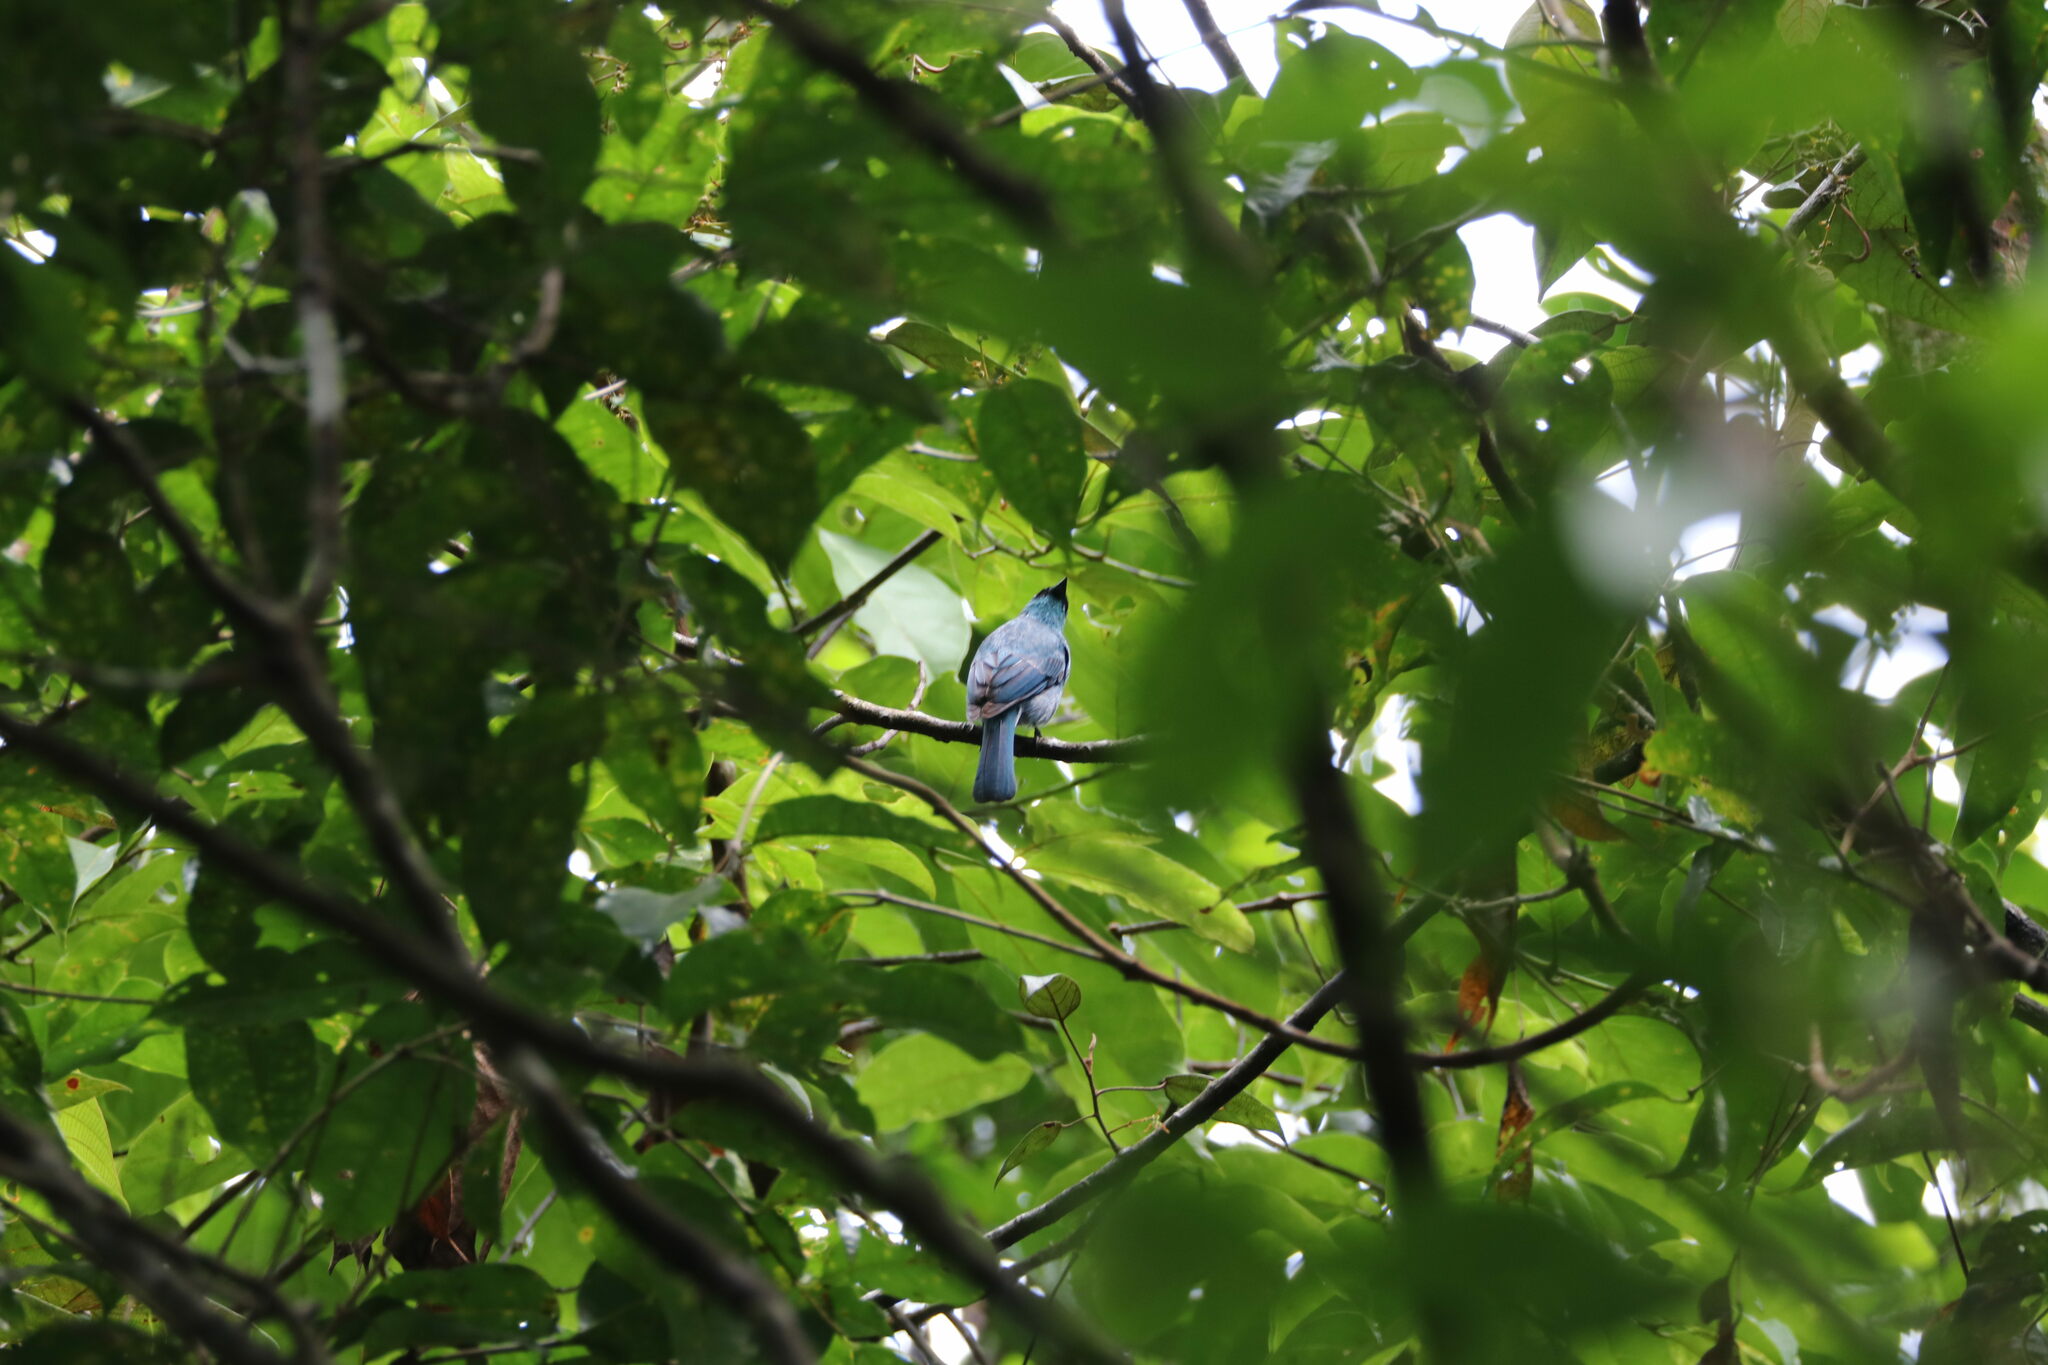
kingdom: Animalia
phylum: Chordata
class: Aves
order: Passeriformes
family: Muscicapidae
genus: Eumyias
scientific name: Eumyias indigo
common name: Indigo flycatcher
